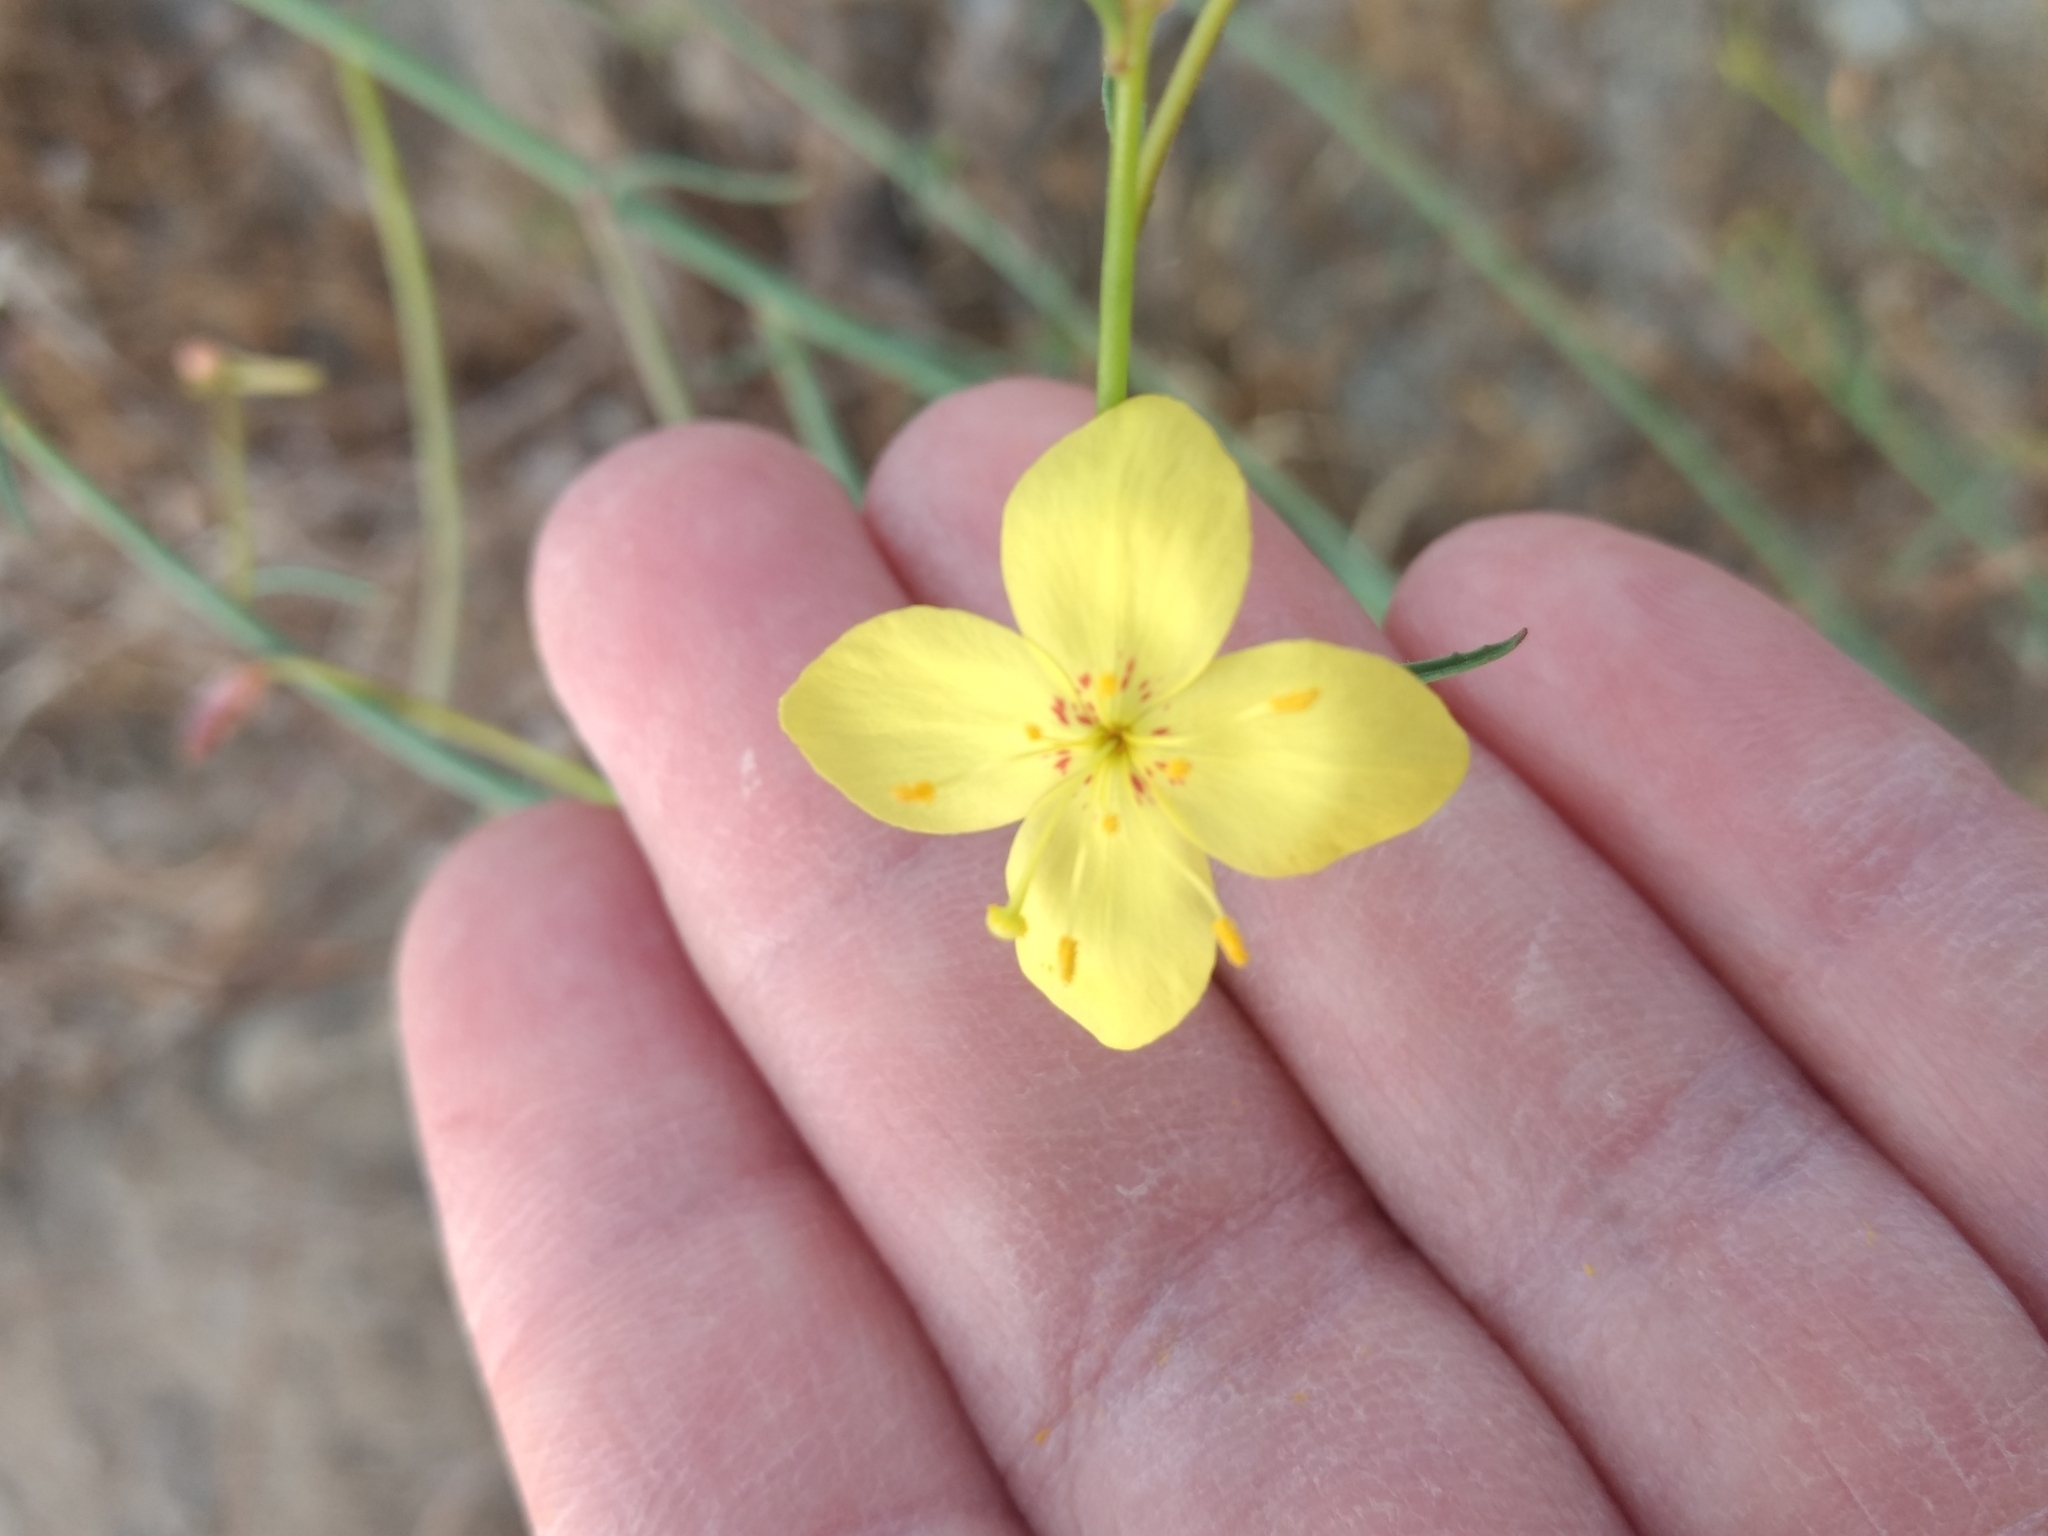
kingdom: Plantae
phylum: Tracheophyta
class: Magnoliopsida
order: Myrtales
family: Onagraceae
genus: Eulobus
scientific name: Eulobus californicus
